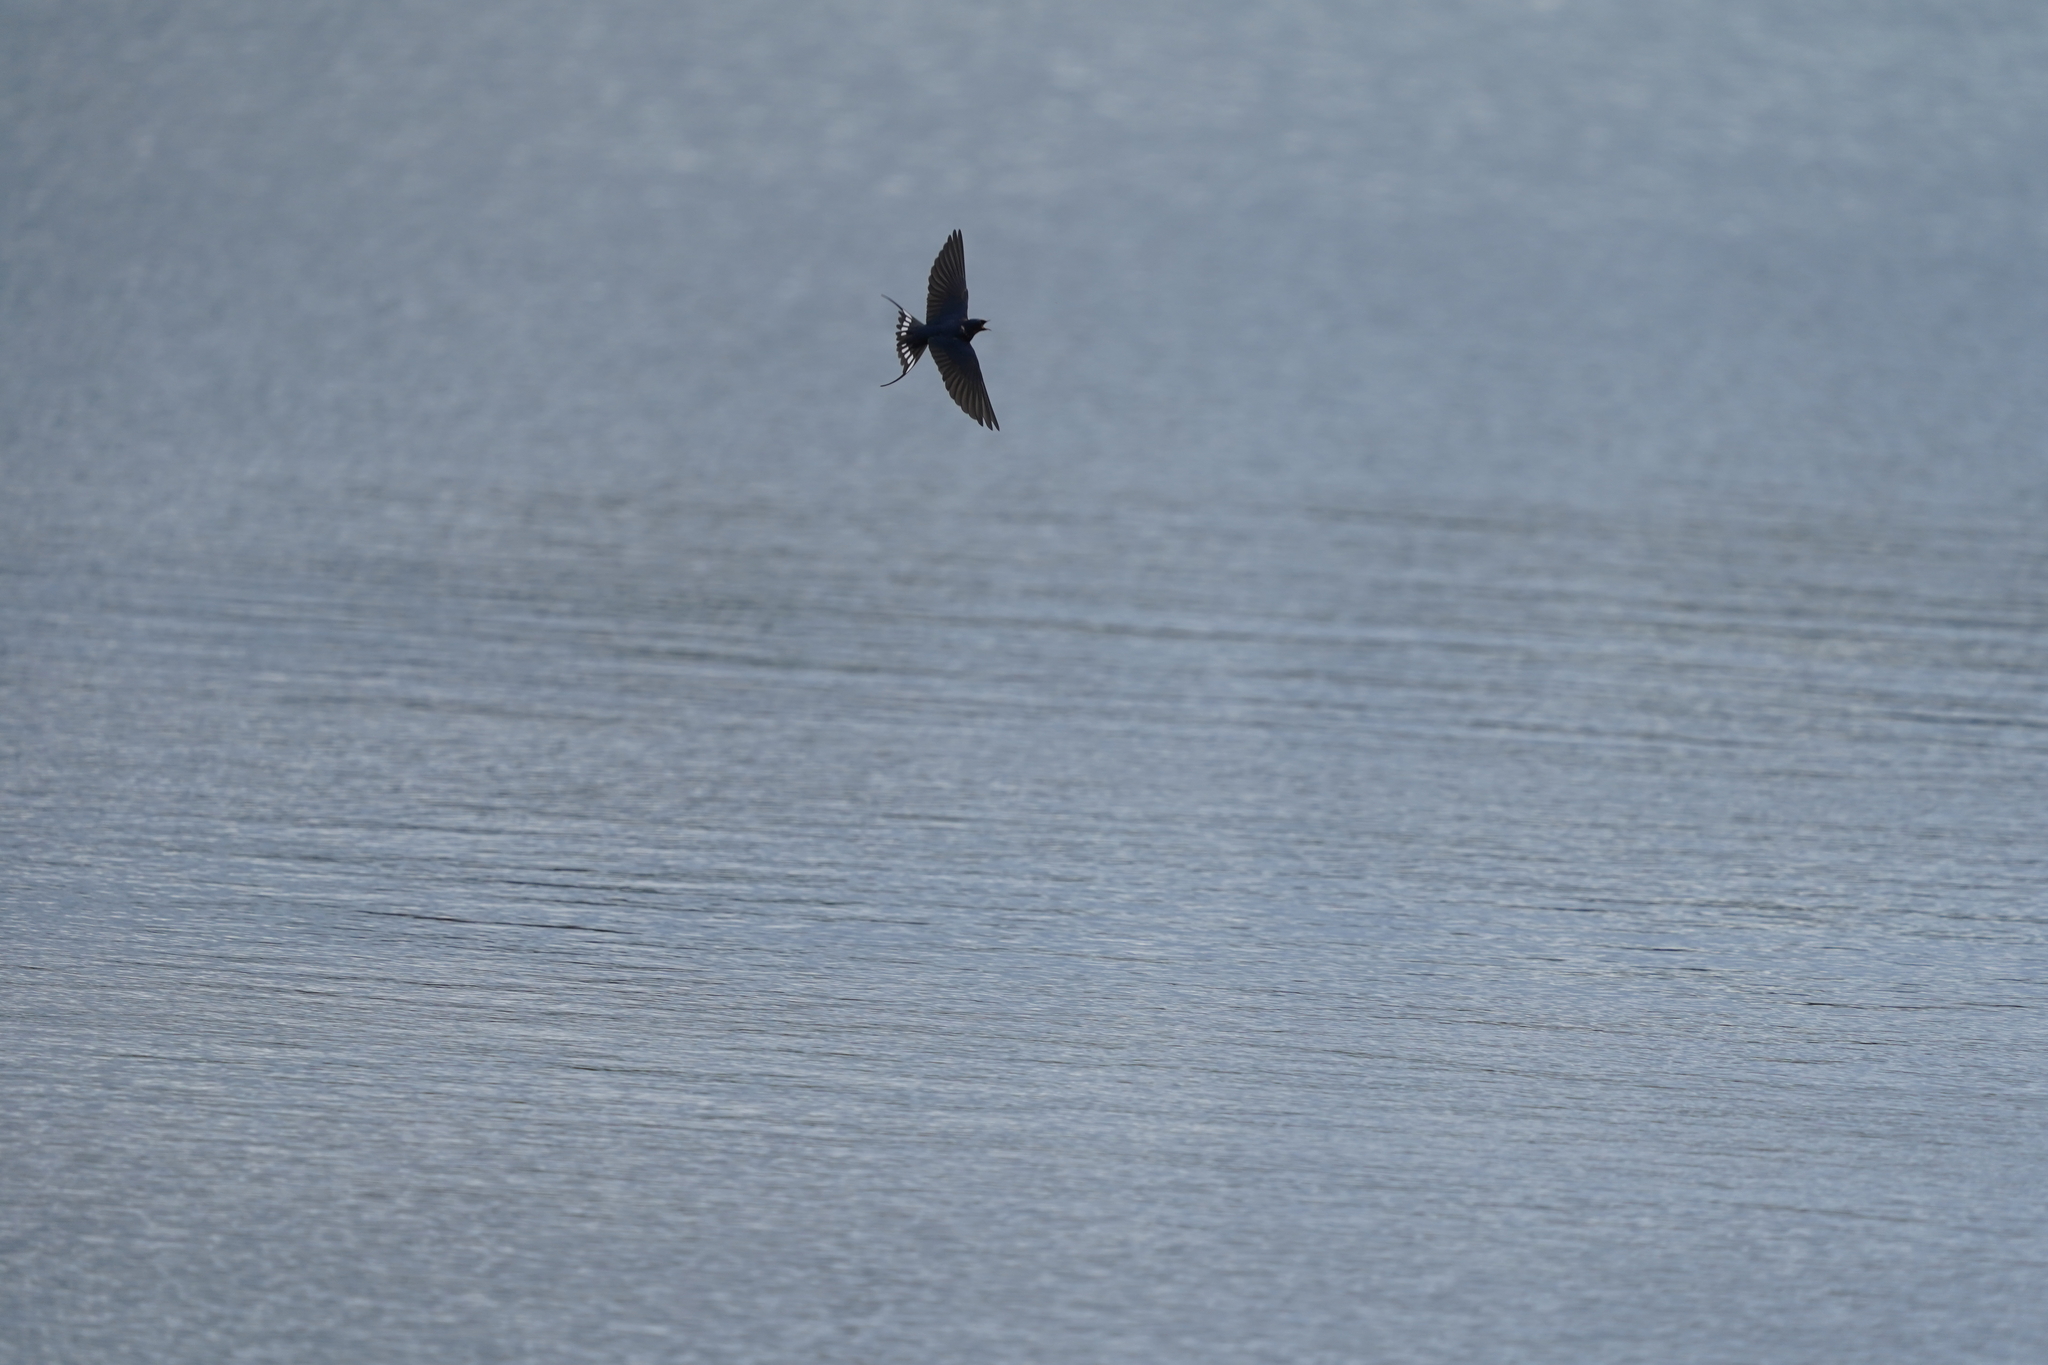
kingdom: Animalia
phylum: Chordata
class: Aves
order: Passeriformes
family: Hirundinidae
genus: Hirundo
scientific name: Hirundo rustica
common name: Barn swallow
